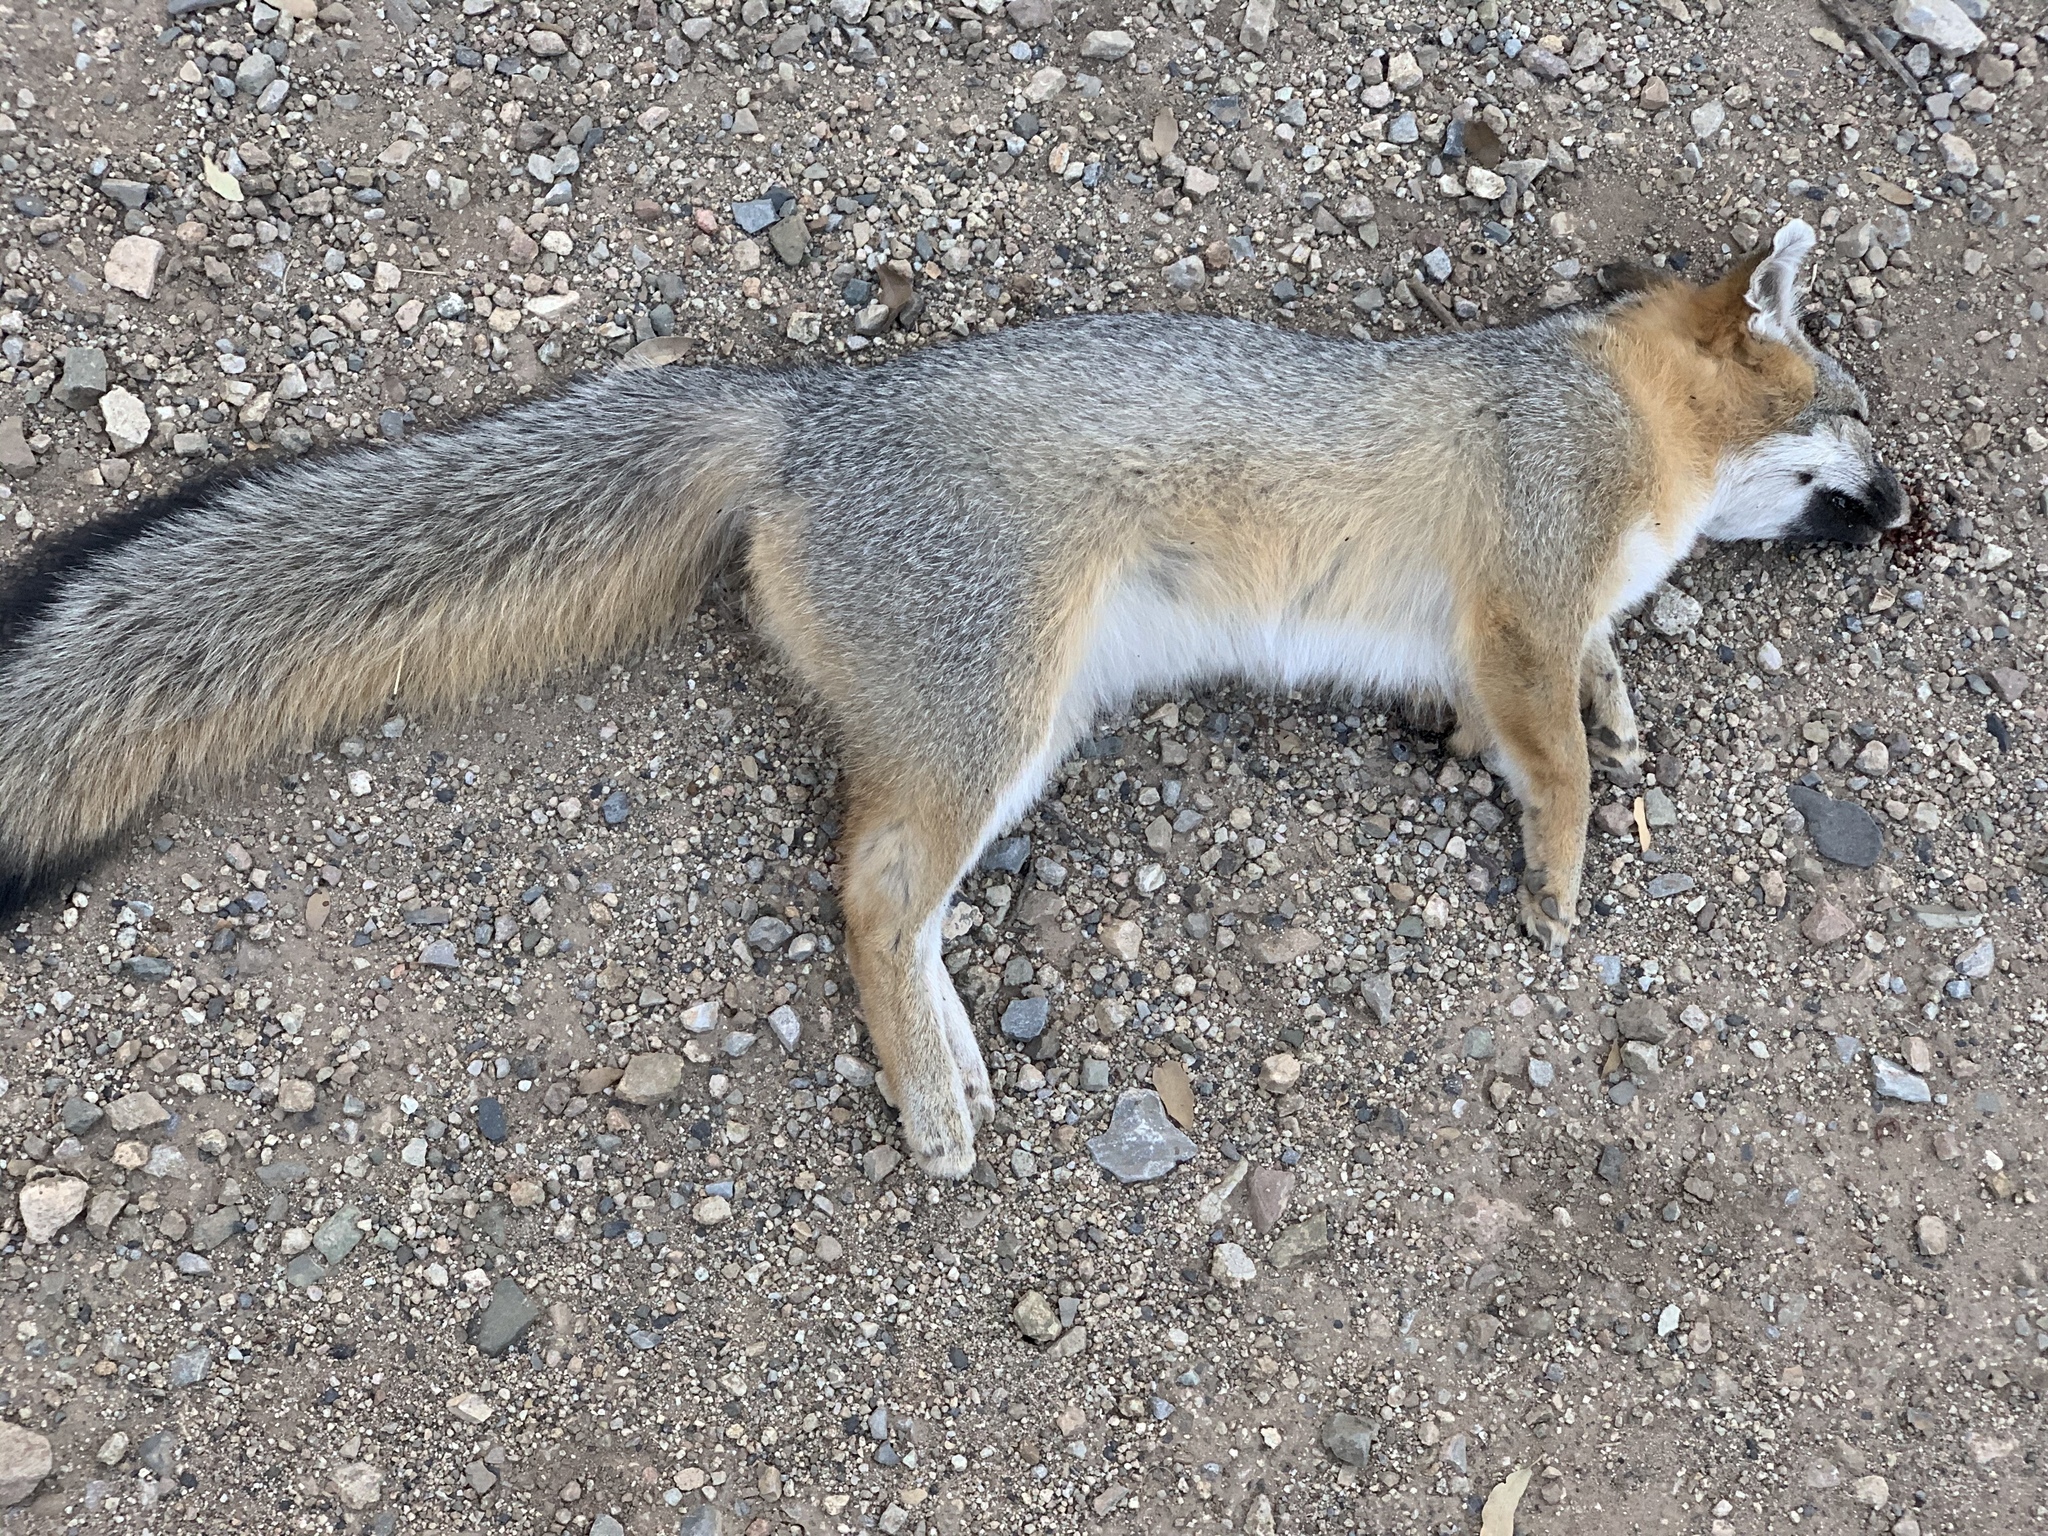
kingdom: Animalia
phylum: Chordata
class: Mammalia
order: Carnivora
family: Canidae
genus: Urocyon
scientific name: Urocyon cinereoargenteus
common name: Gray fox
